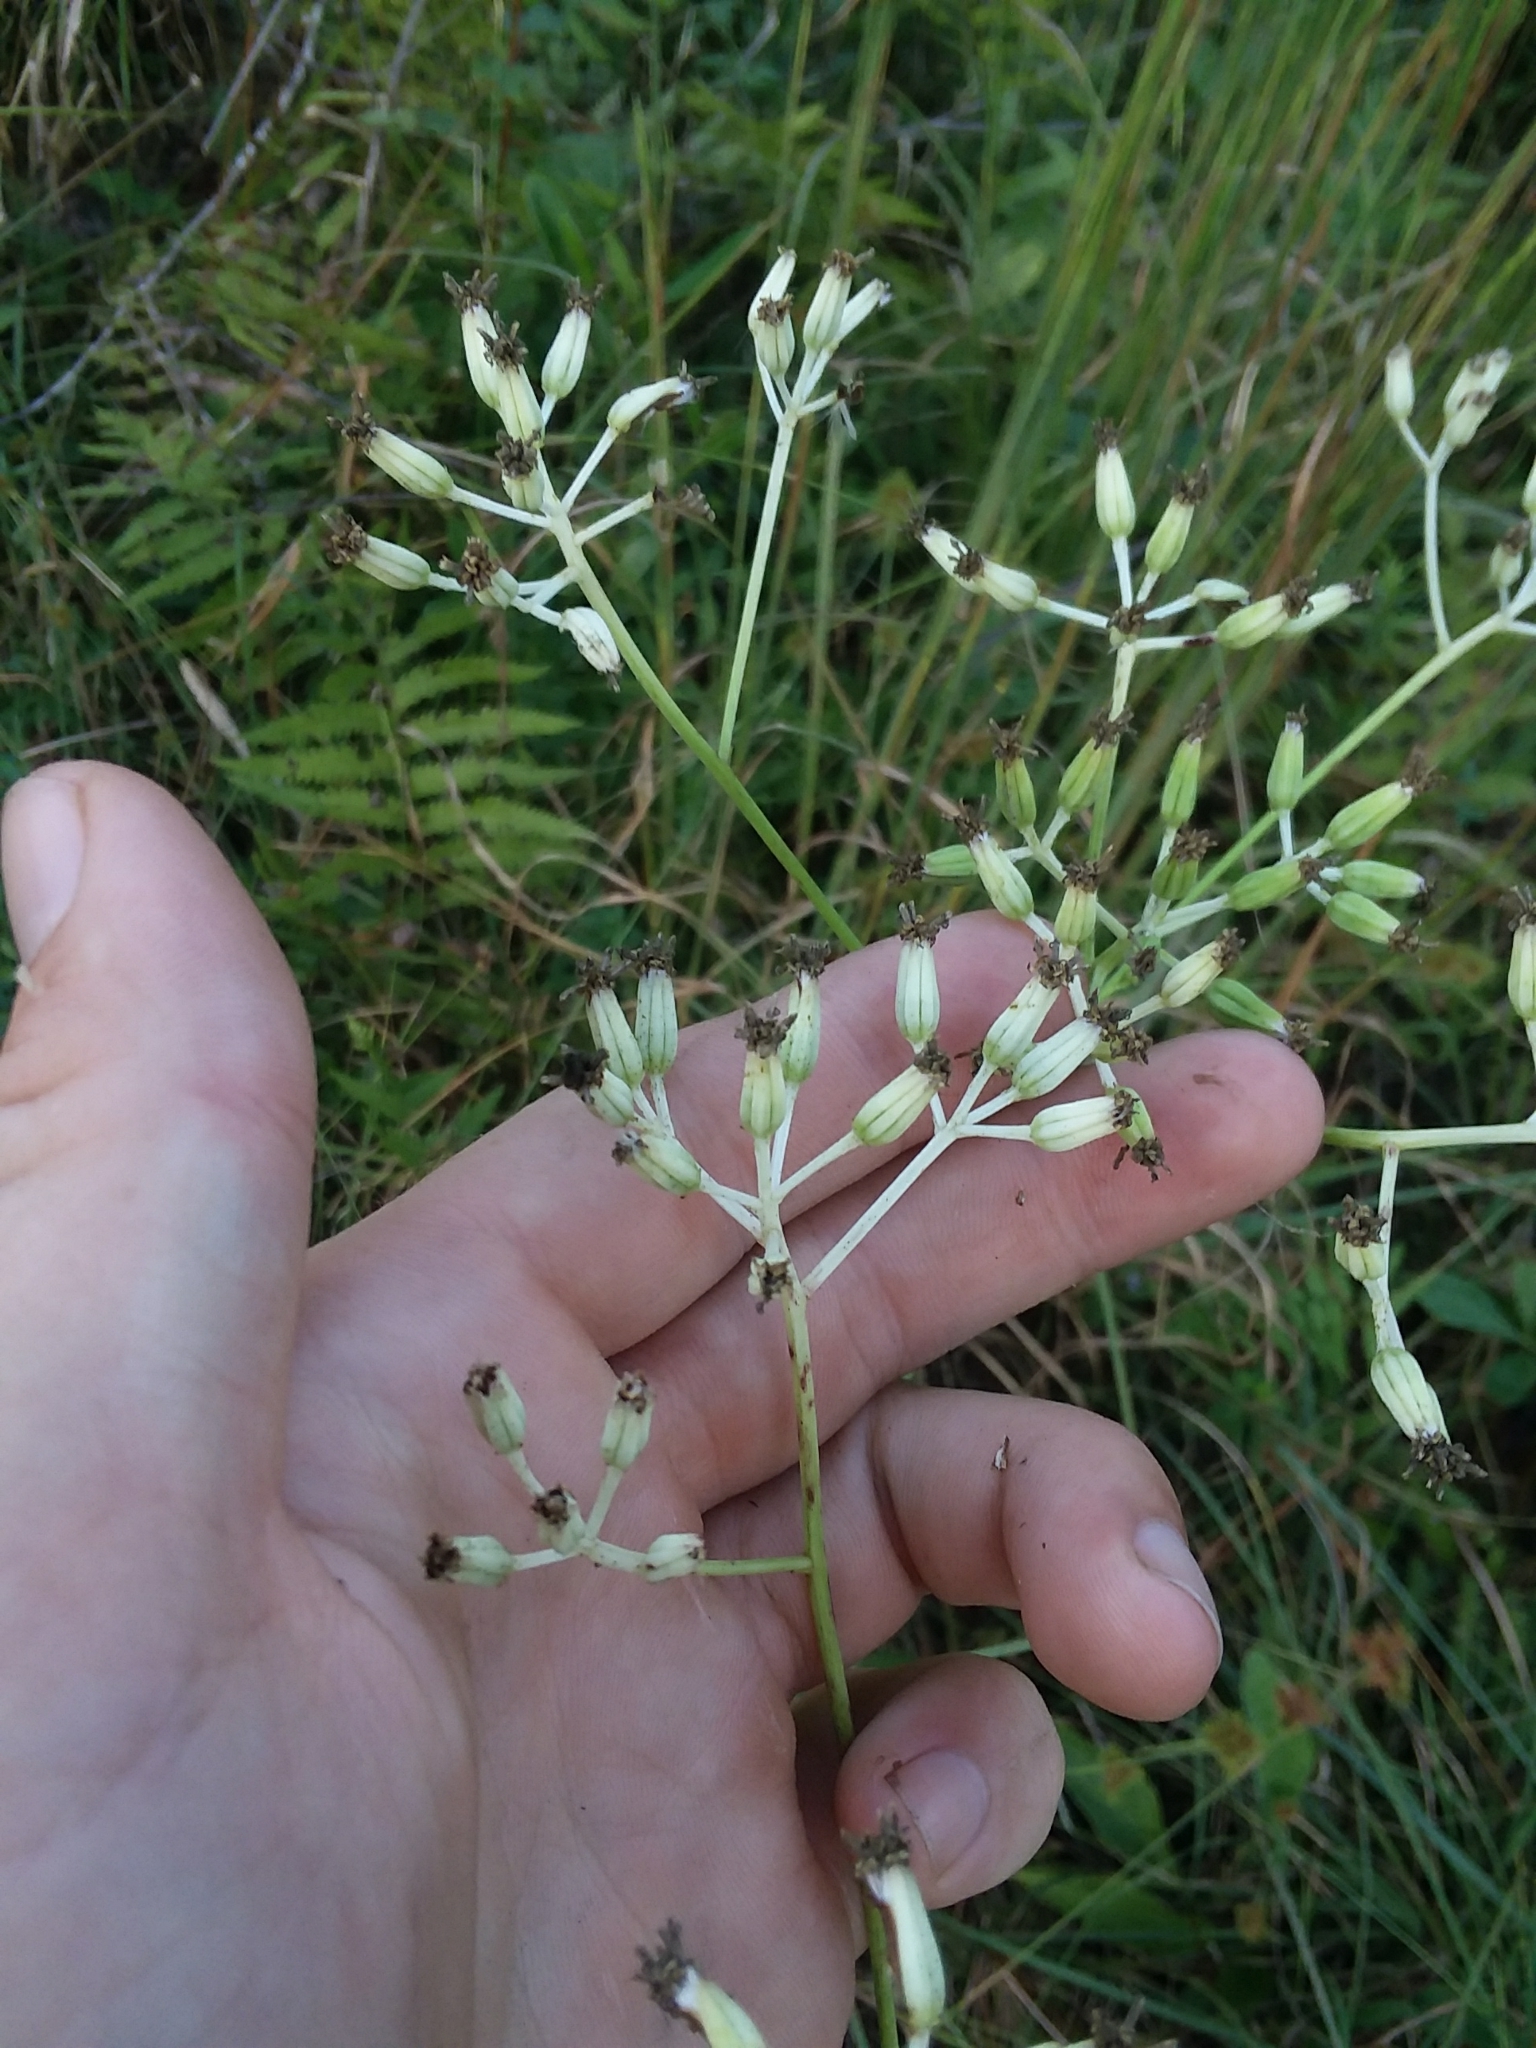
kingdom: Plantae
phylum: Tracheophyta
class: Magnoliopsida
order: Asterales
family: Asteraceae
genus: Arnoglossum
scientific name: Arnoglossum ovatum
